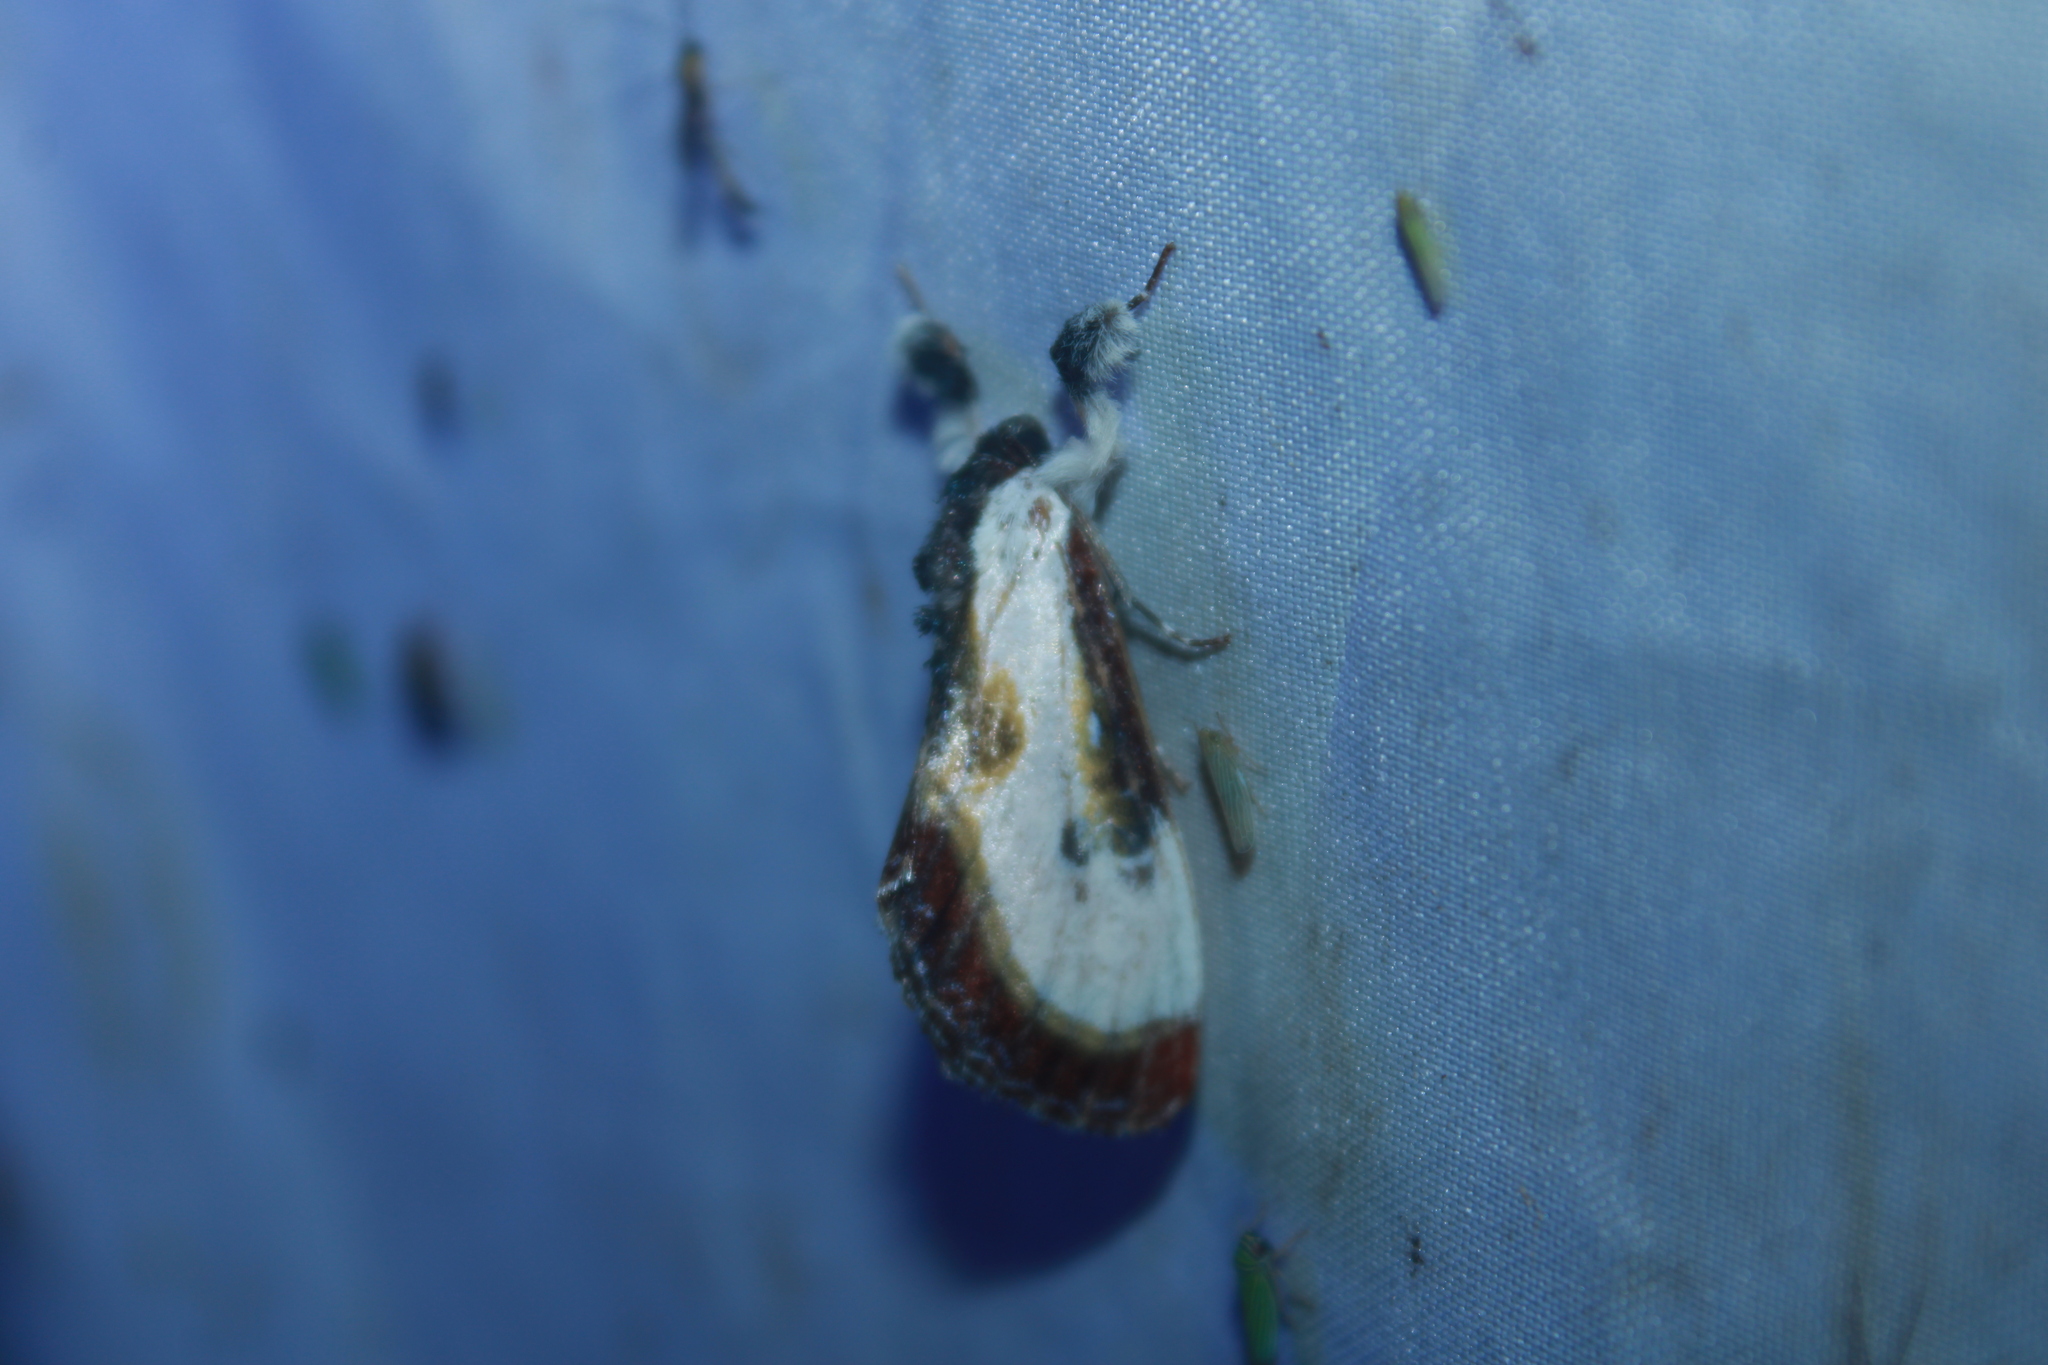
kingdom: Animalia
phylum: Arthropoda
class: Insecta
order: Lepidoptera
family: Noctuidae
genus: Eudryas
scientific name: Eudryas grata
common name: Beautiful wood-nymph
